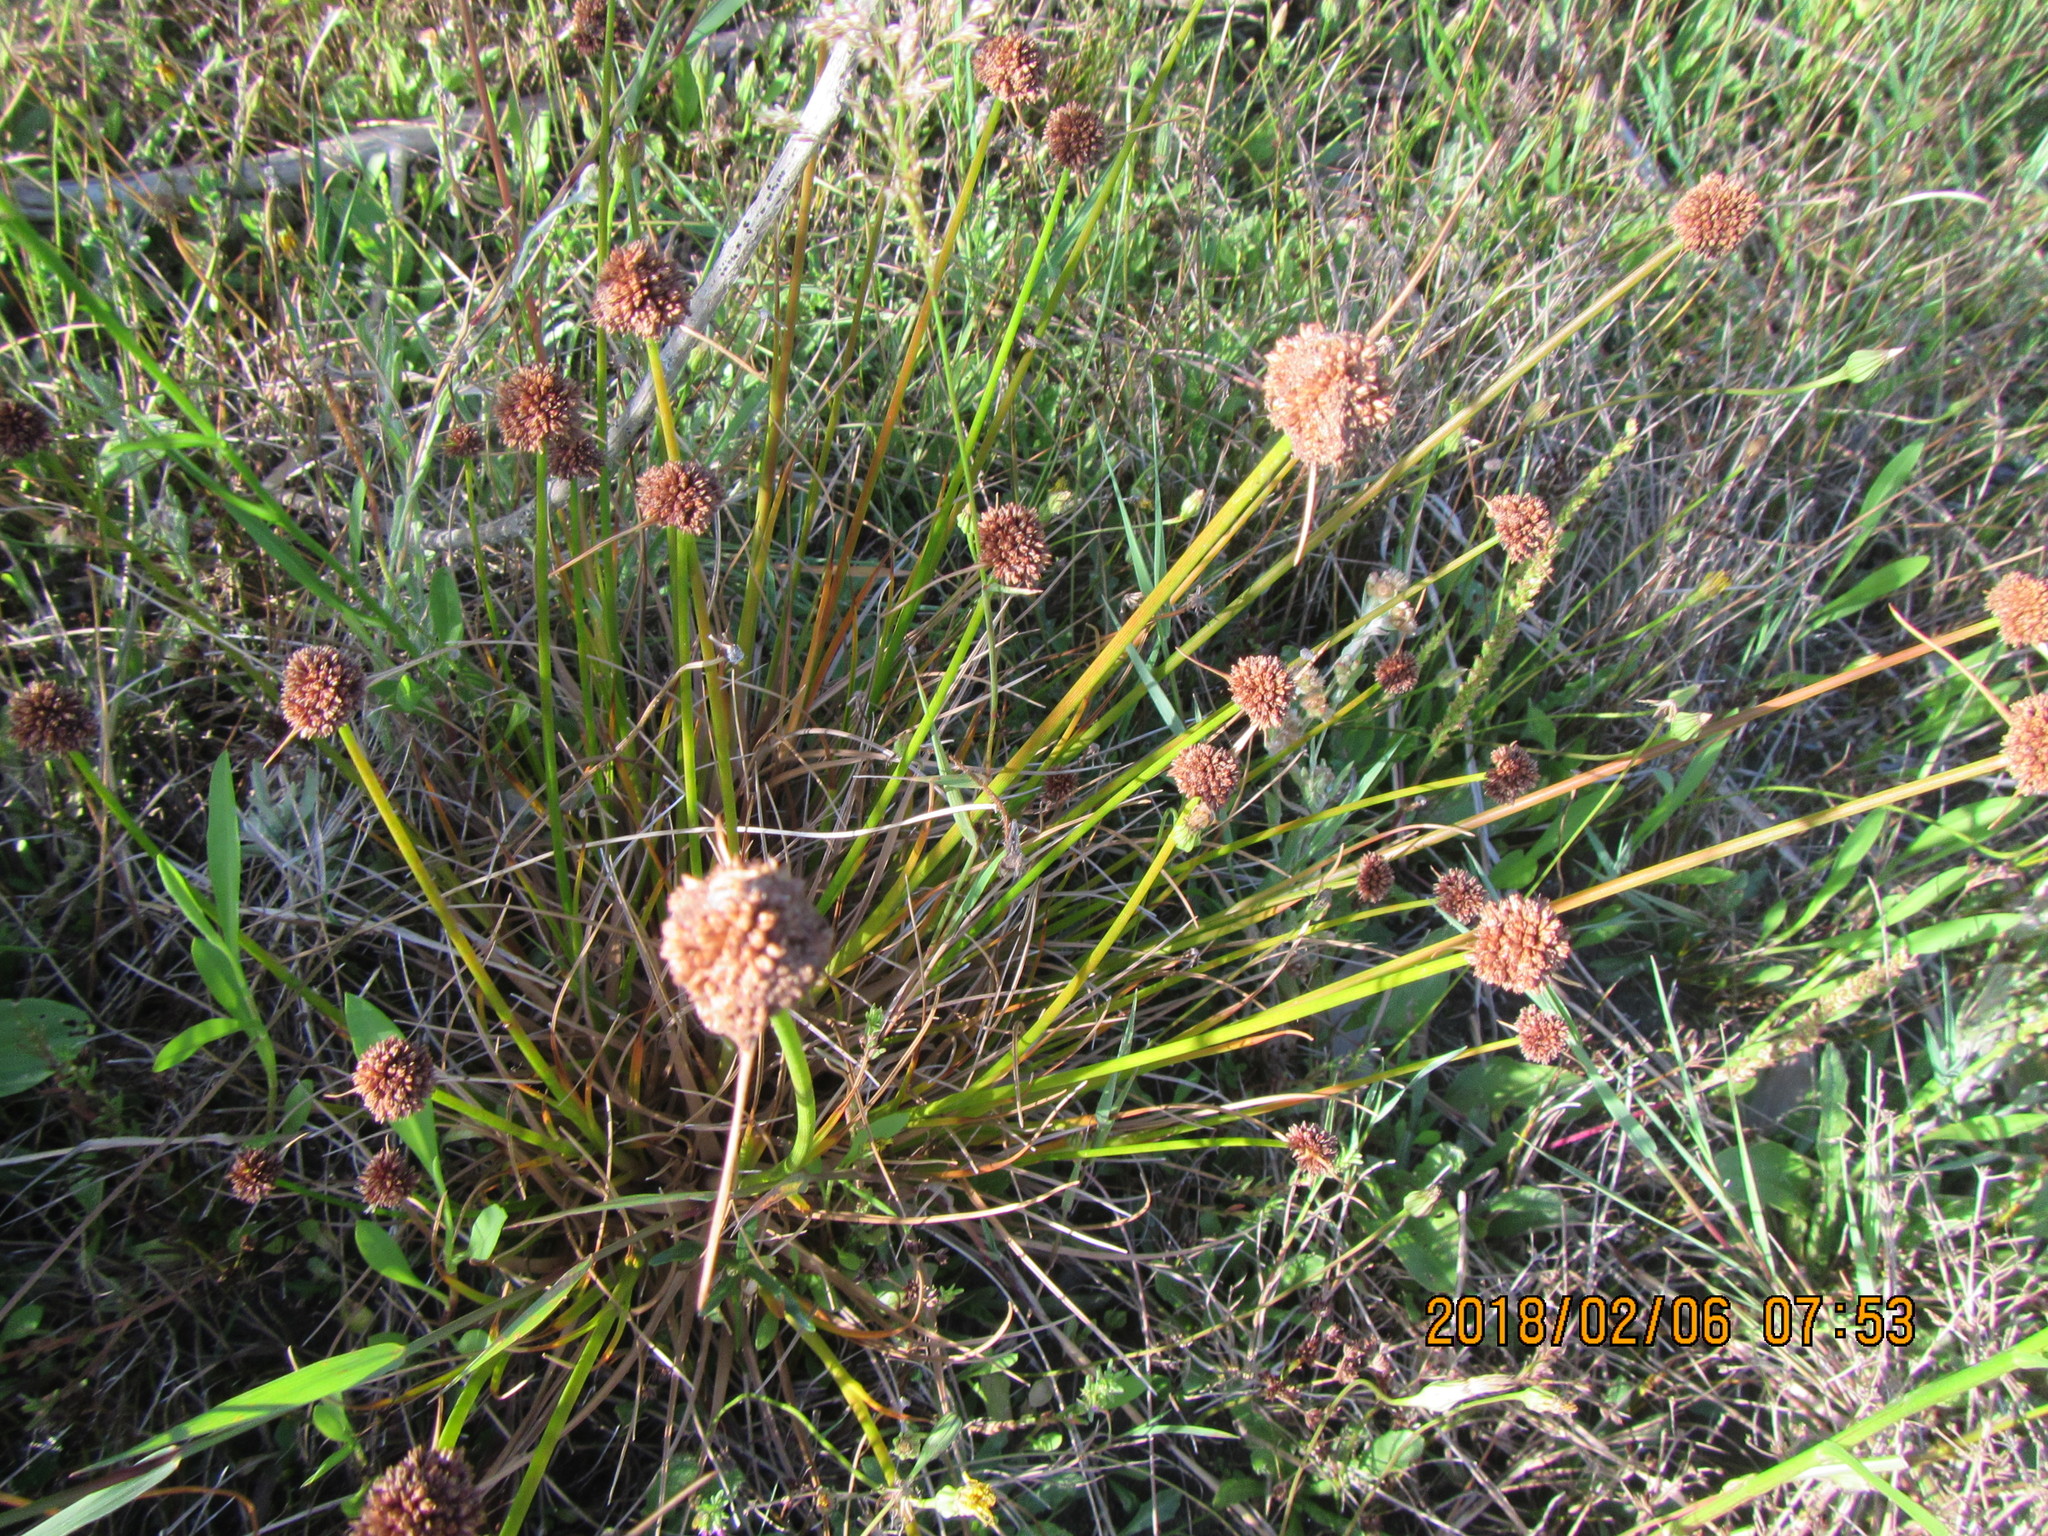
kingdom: Plantae
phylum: Tracheophyta
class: Liliopsida
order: Poales
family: Juncaceae
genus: Juncus
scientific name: Juncus caespiticius
